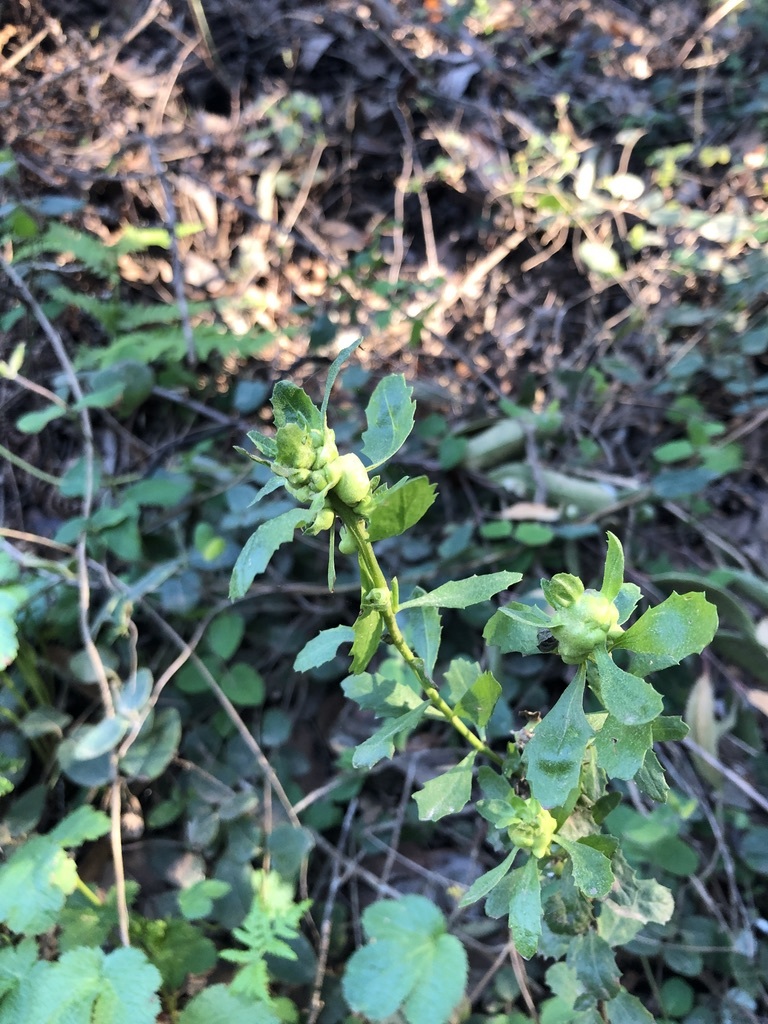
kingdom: Animalia
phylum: Arthropoda
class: Insecta
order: Diptera
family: Cecidomyiidae
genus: Rhopalomyia
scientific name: Rhopalomyia californica
